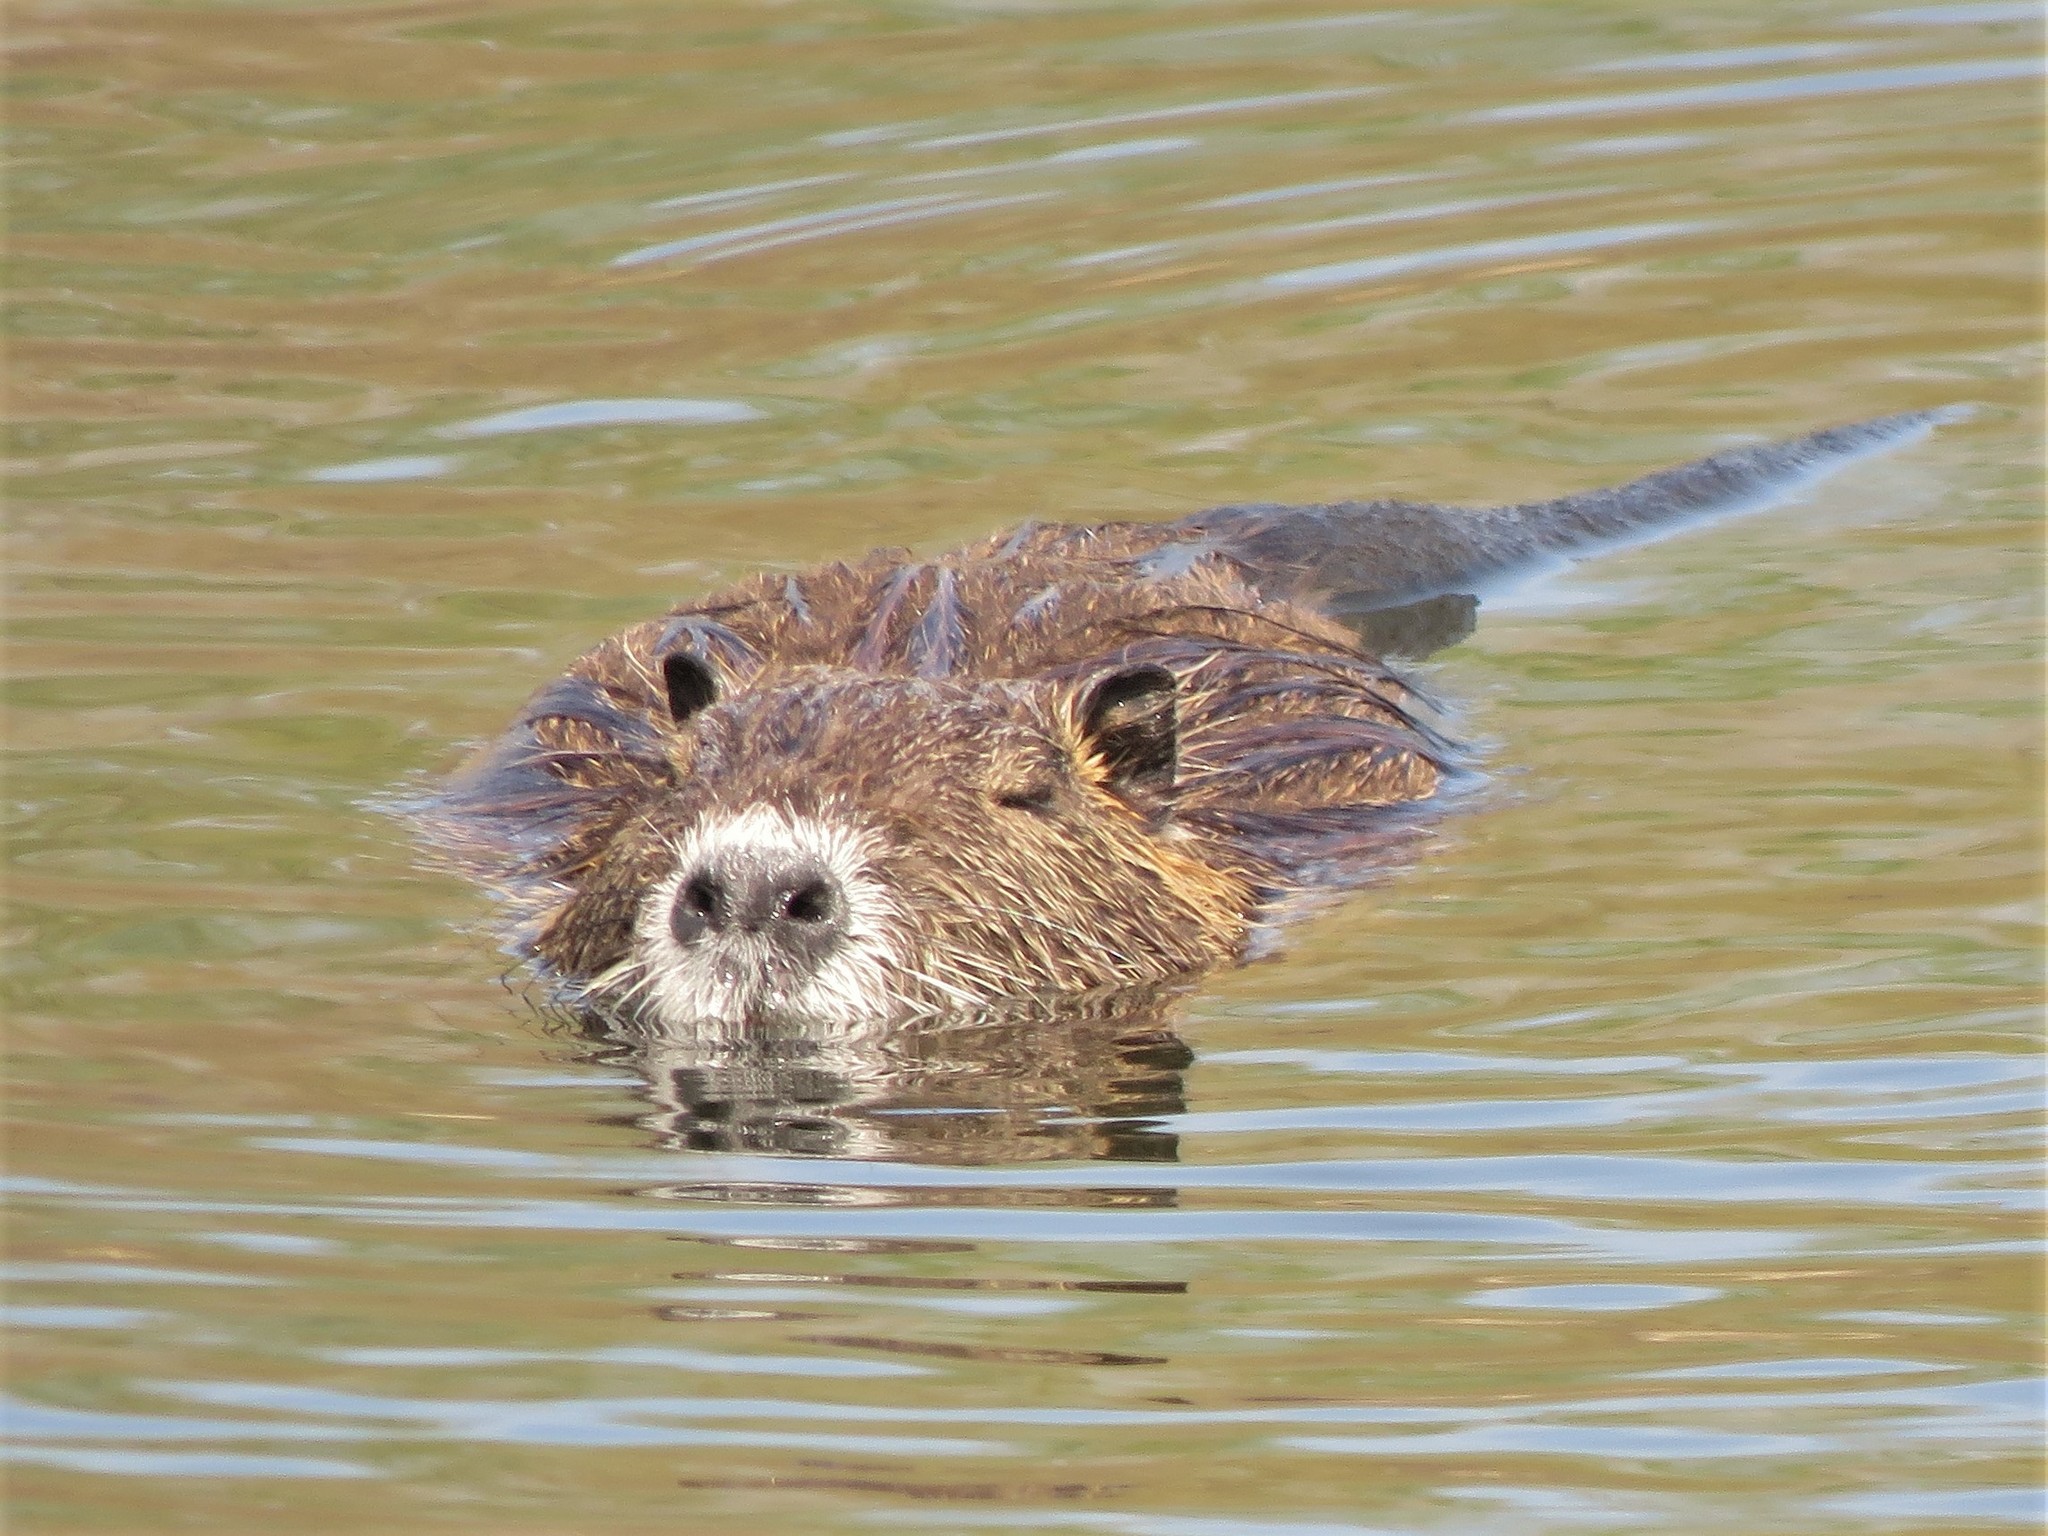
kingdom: Animalia
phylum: Chordata
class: Mammalia
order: Rodentia
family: Myocastoridae
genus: Myocastor
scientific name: Myocastor coypus
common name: Coypu
